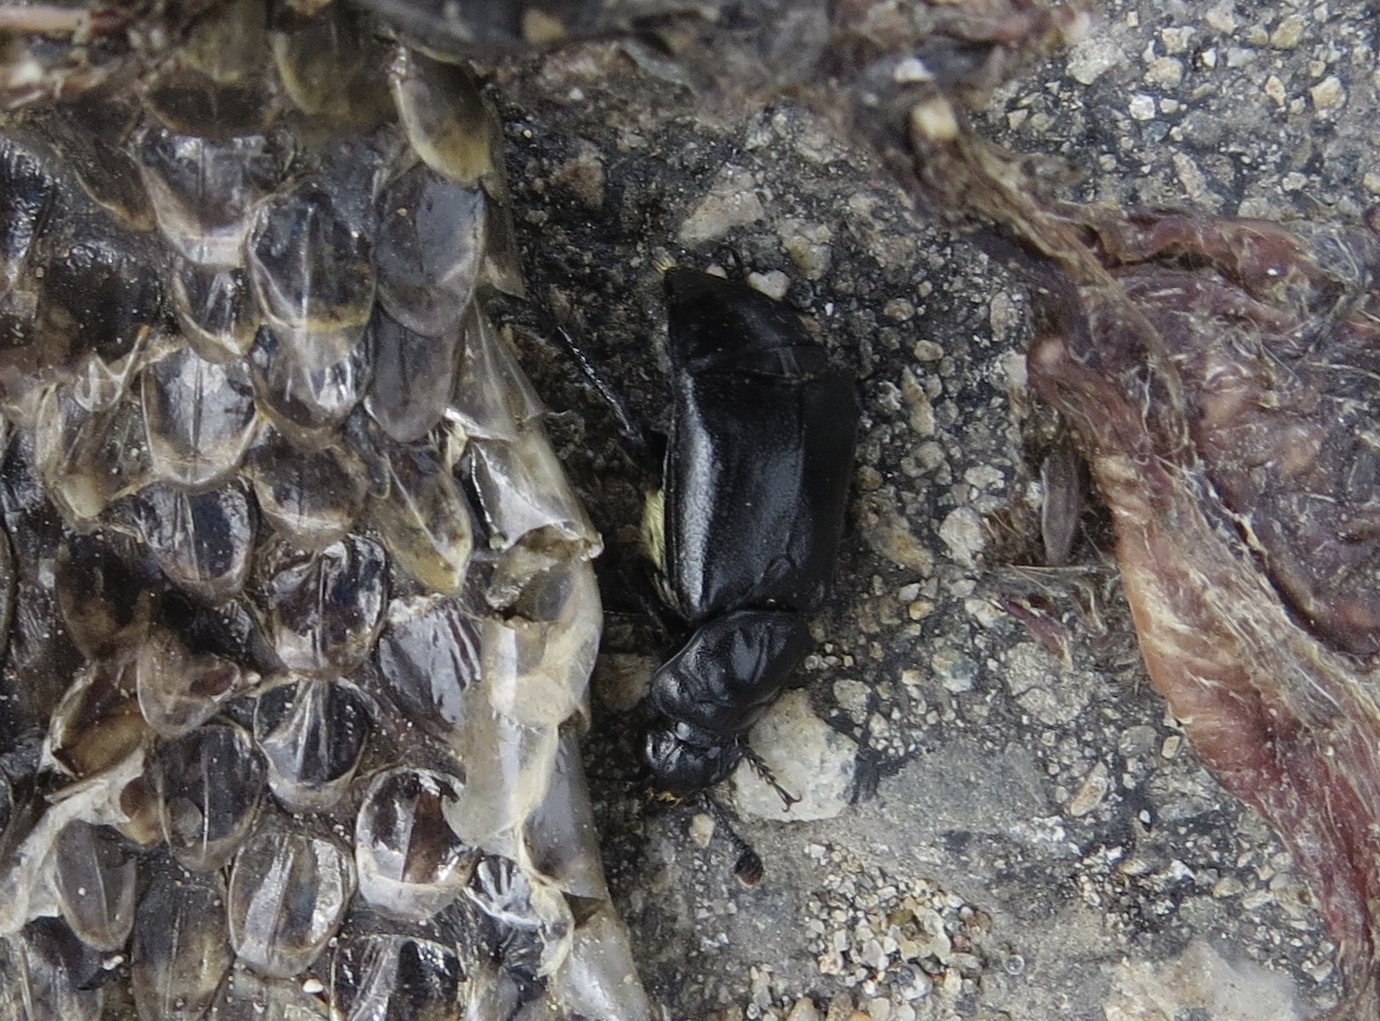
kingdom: Animalia
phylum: Arthropoda
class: Insecta
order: Coleoptera
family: Staphylinidae
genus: Nicrophorus
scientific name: Nicrophorus guttula
